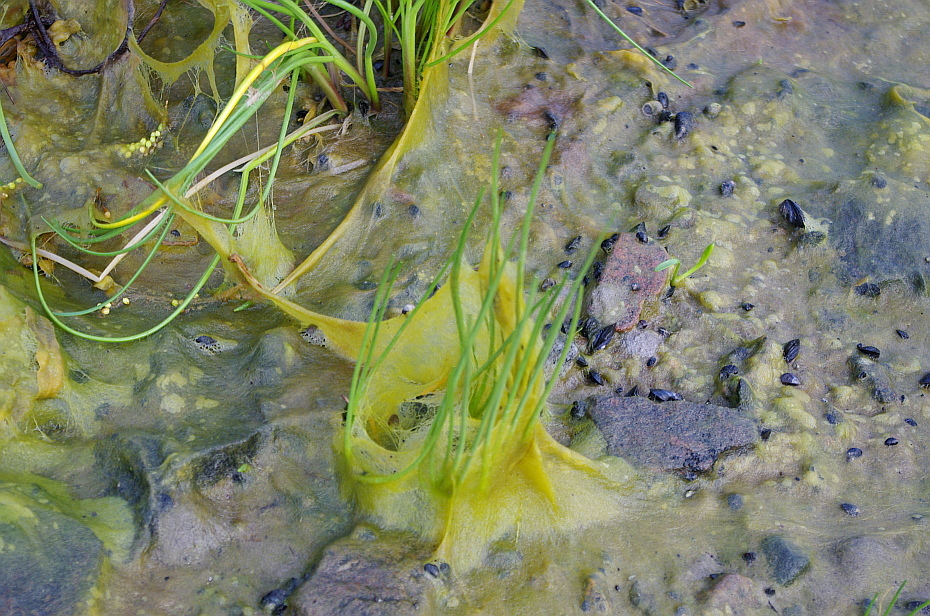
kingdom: Plantae
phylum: Tracheophyta
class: Liliopsida
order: Alismatales
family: Juncaginaceae
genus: Triglochin
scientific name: Triglochin maritima
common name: Sea arrowgrass
